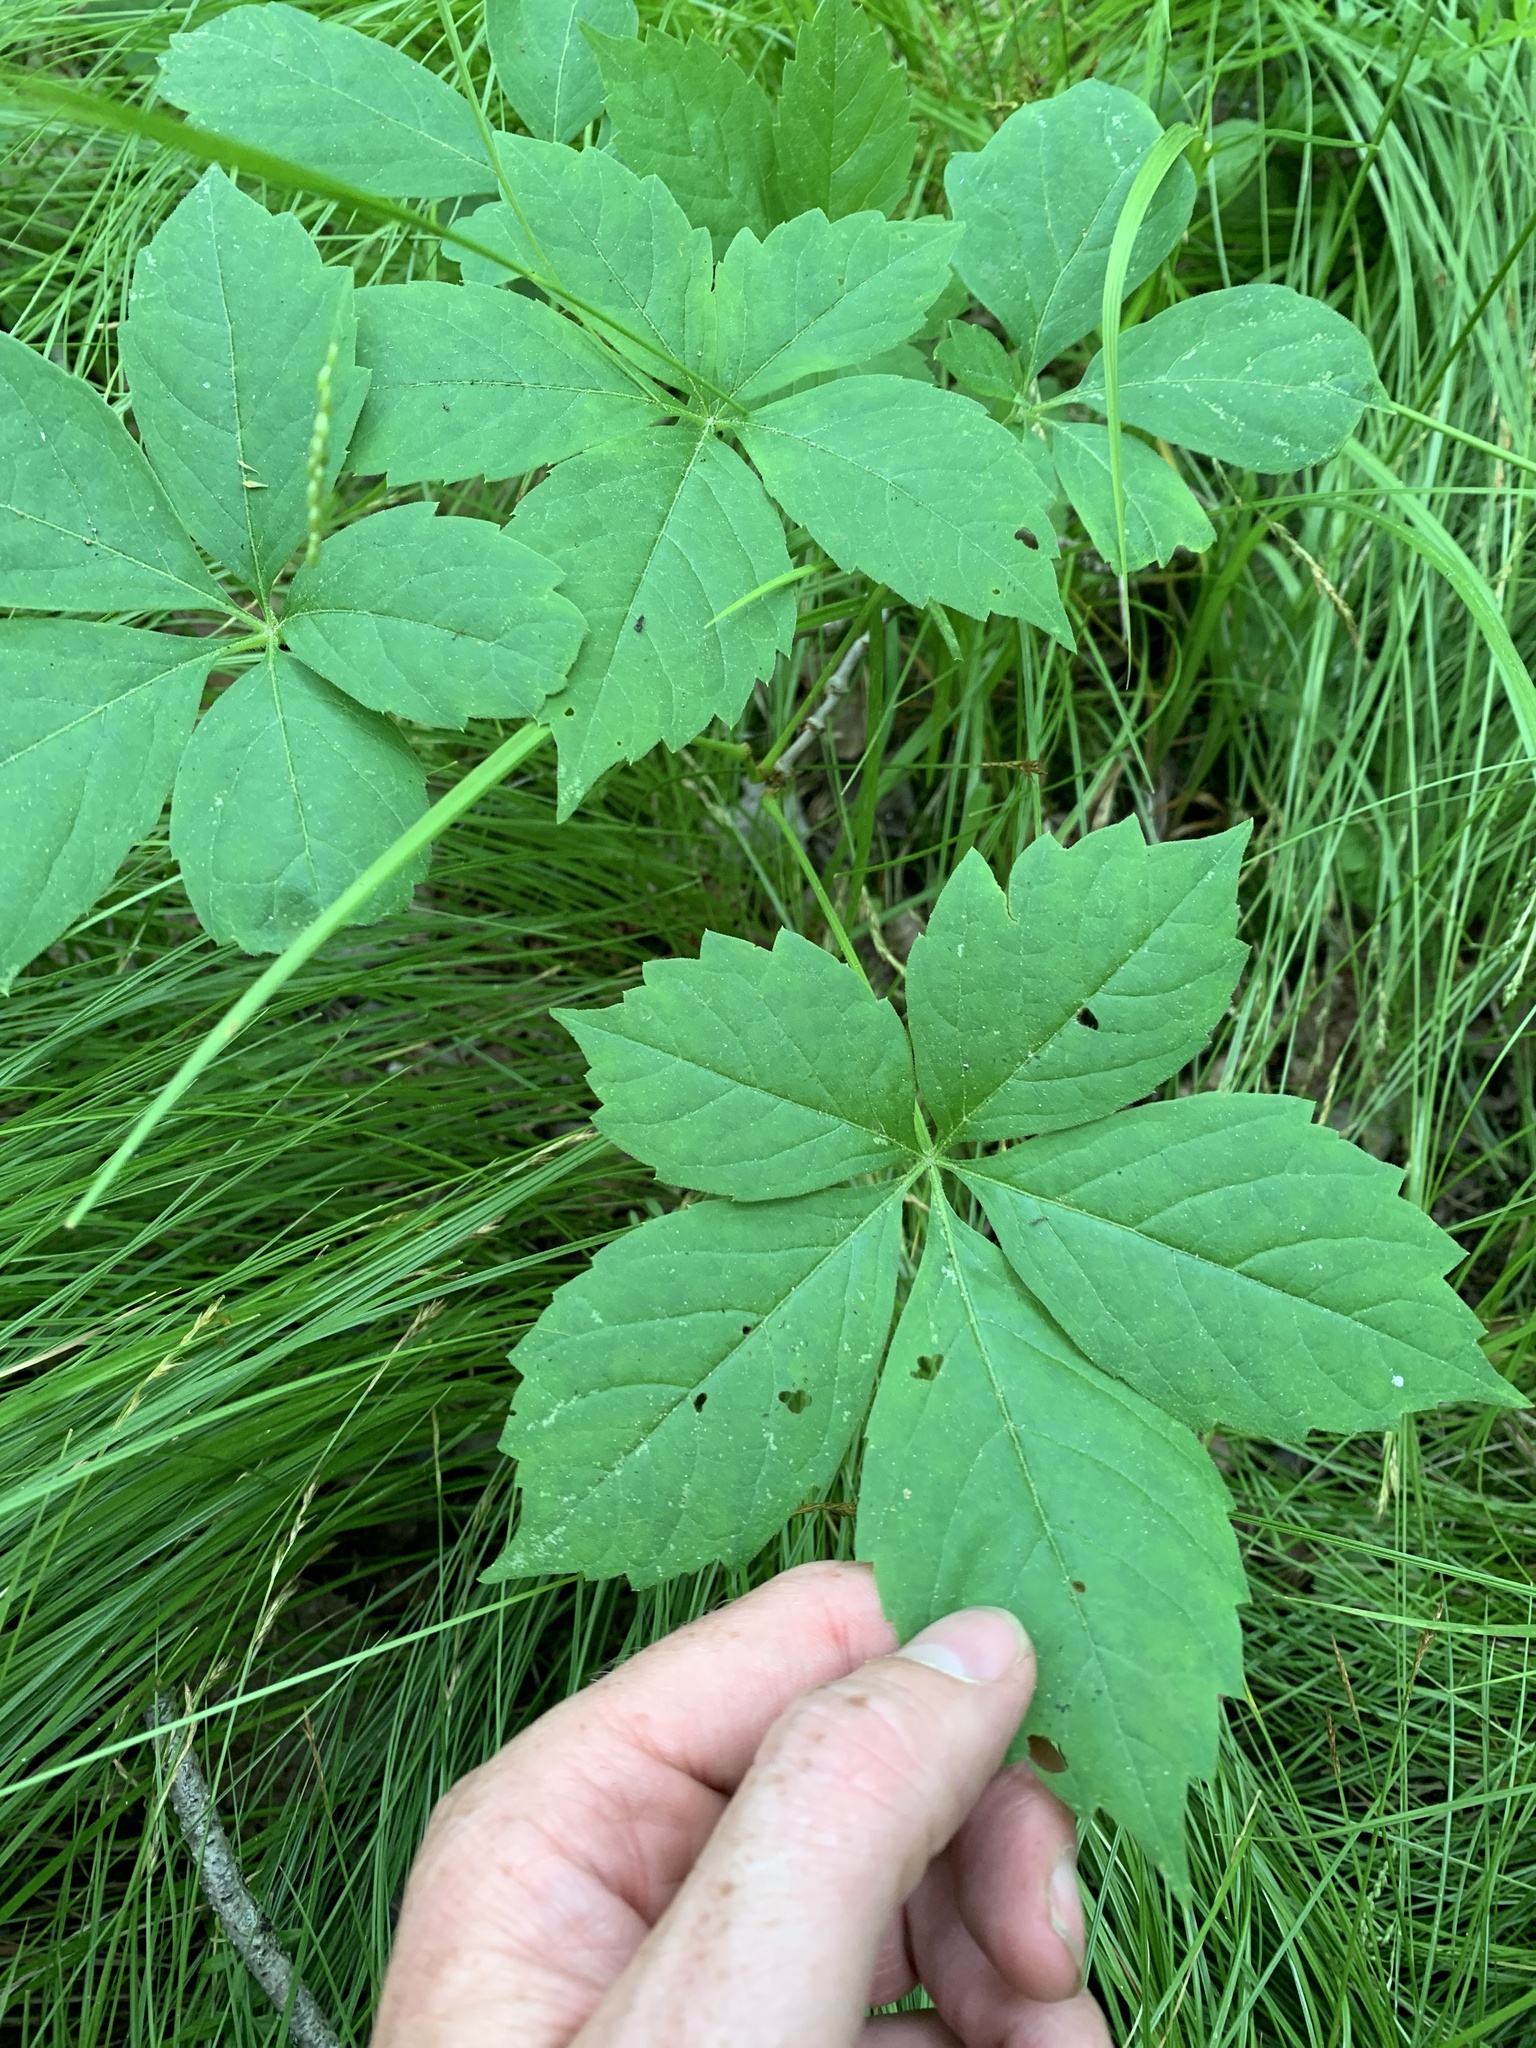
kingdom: Plantae
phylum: Tracheophyta
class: Magnoliopsida
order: Vitales
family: Vitaceae
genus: Parthenocissus
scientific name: Parthenocissus quinquefolia
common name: Virginia-creeper
